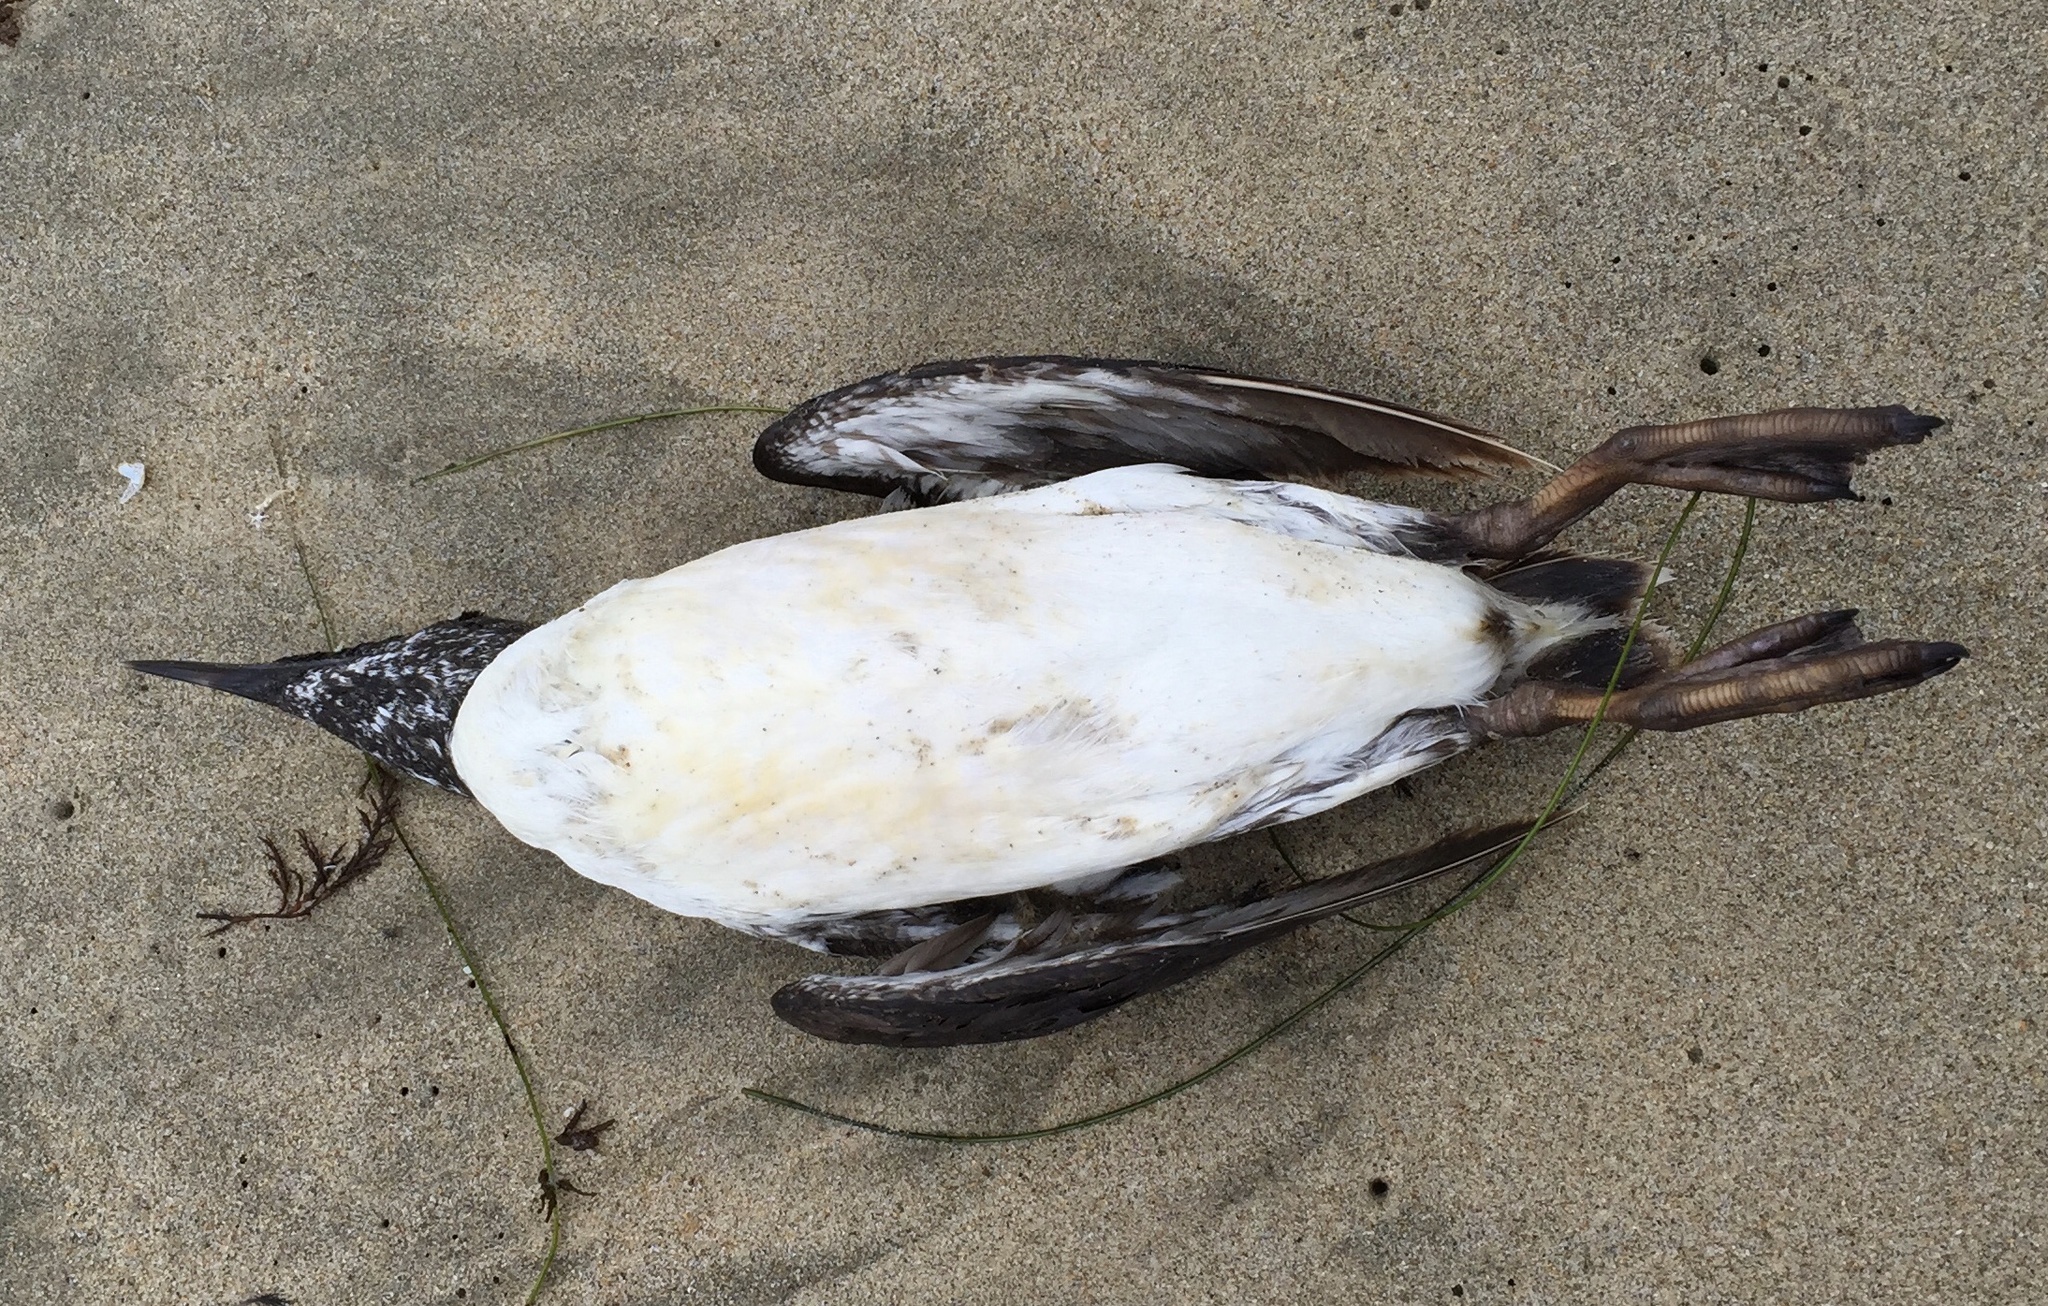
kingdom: Animalia
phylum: Chordata
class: Aves
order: Charadriiformes
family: Alcidae
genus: Uria
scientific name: Uria aalge
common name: Common murre
